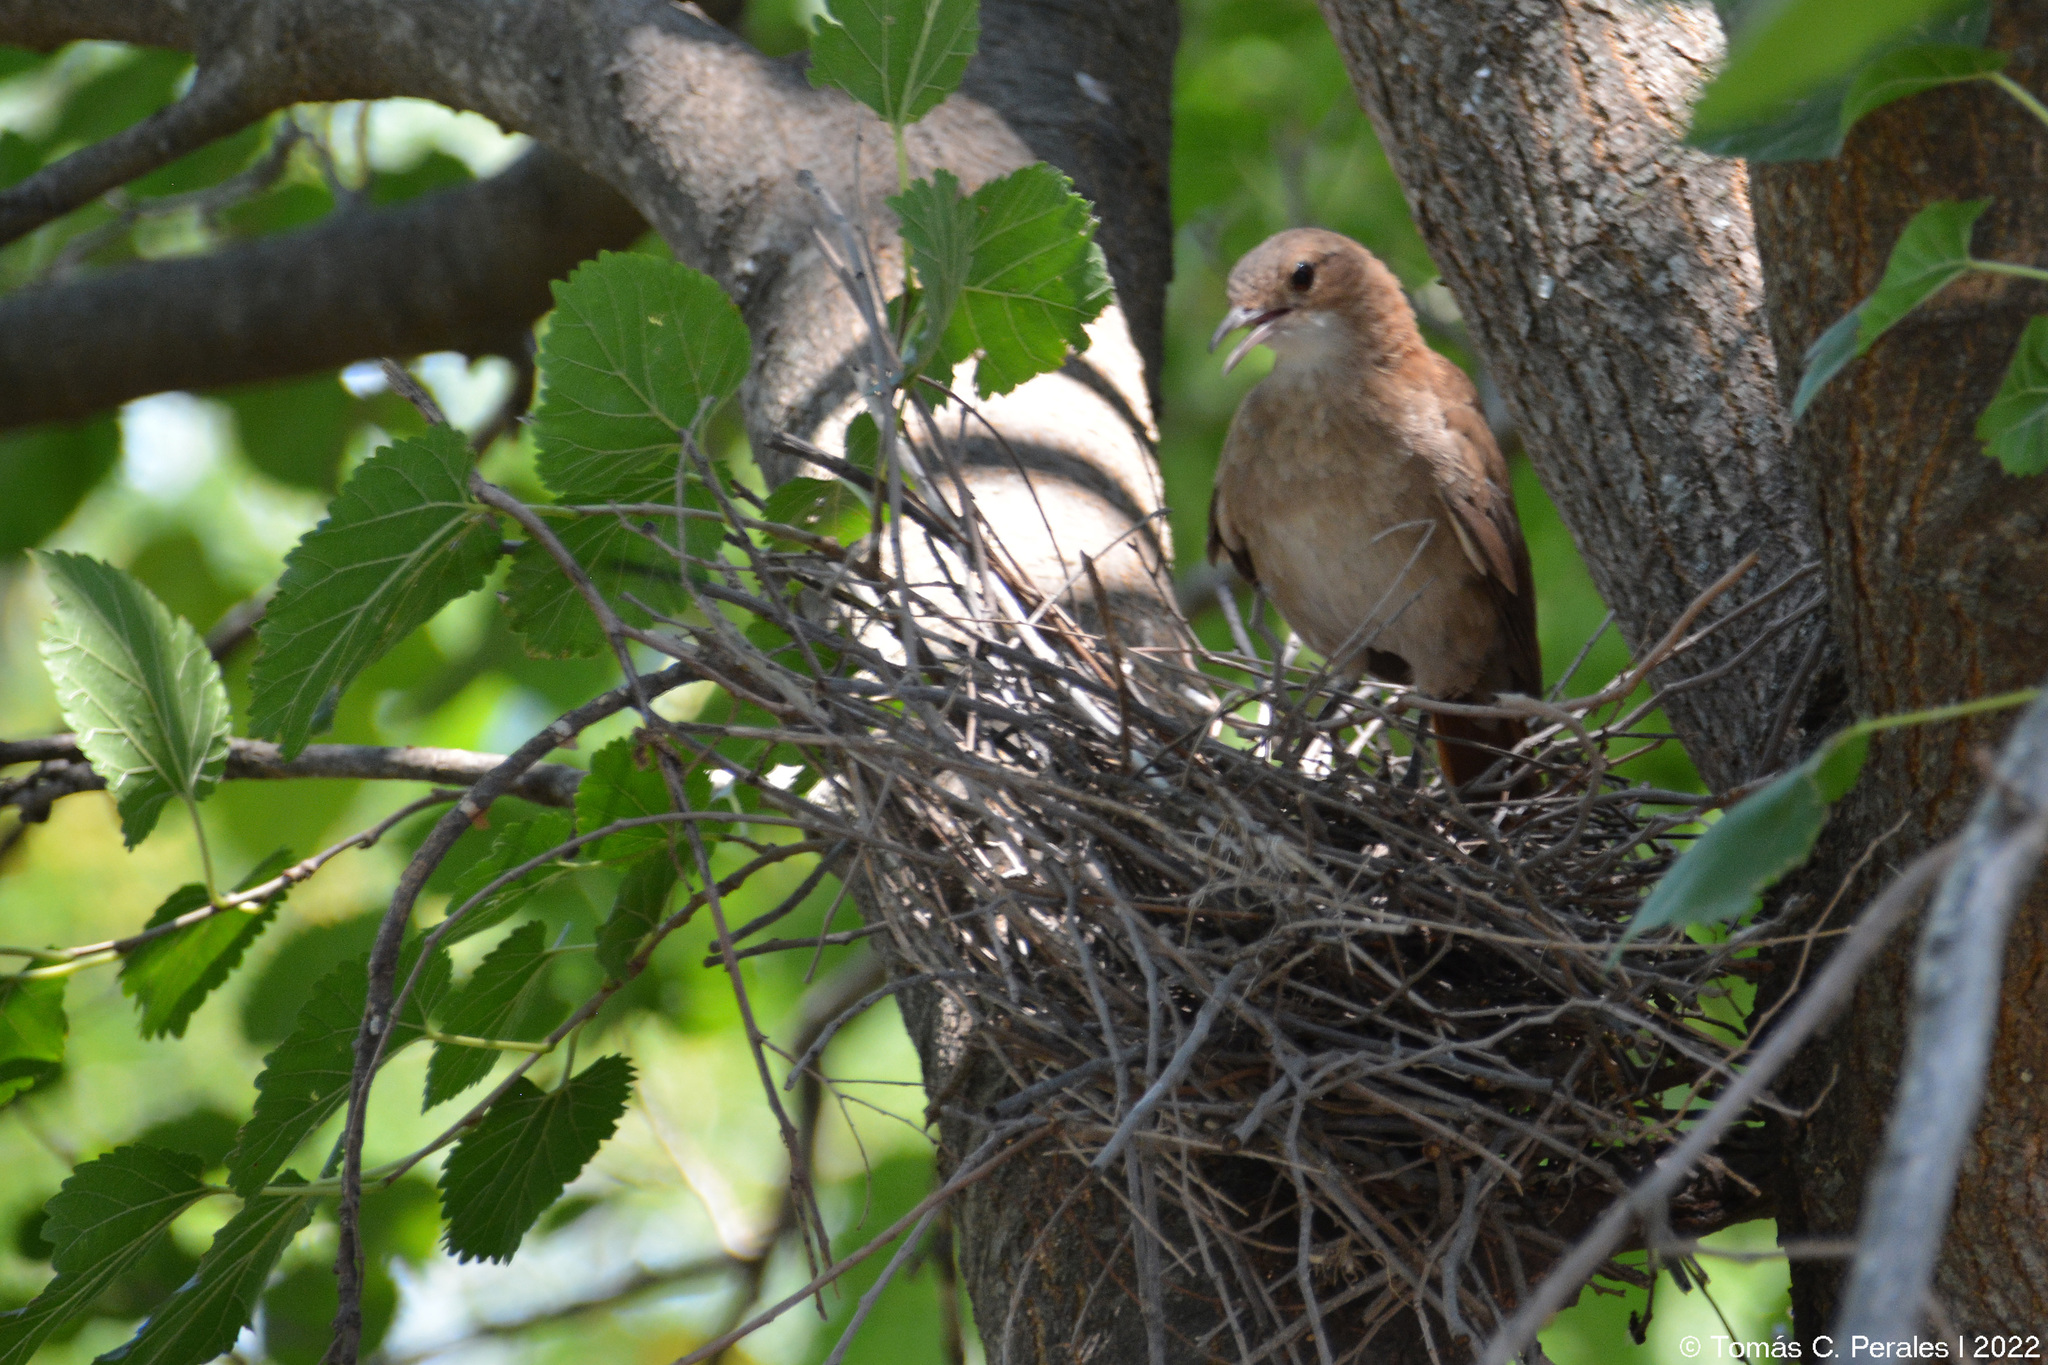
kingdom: Animalia
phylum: Chordata
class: Aves
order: Passeriformes
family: Furnariidae
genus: Furnarius
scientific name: Furnarius rufus
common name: Rufous hornero
